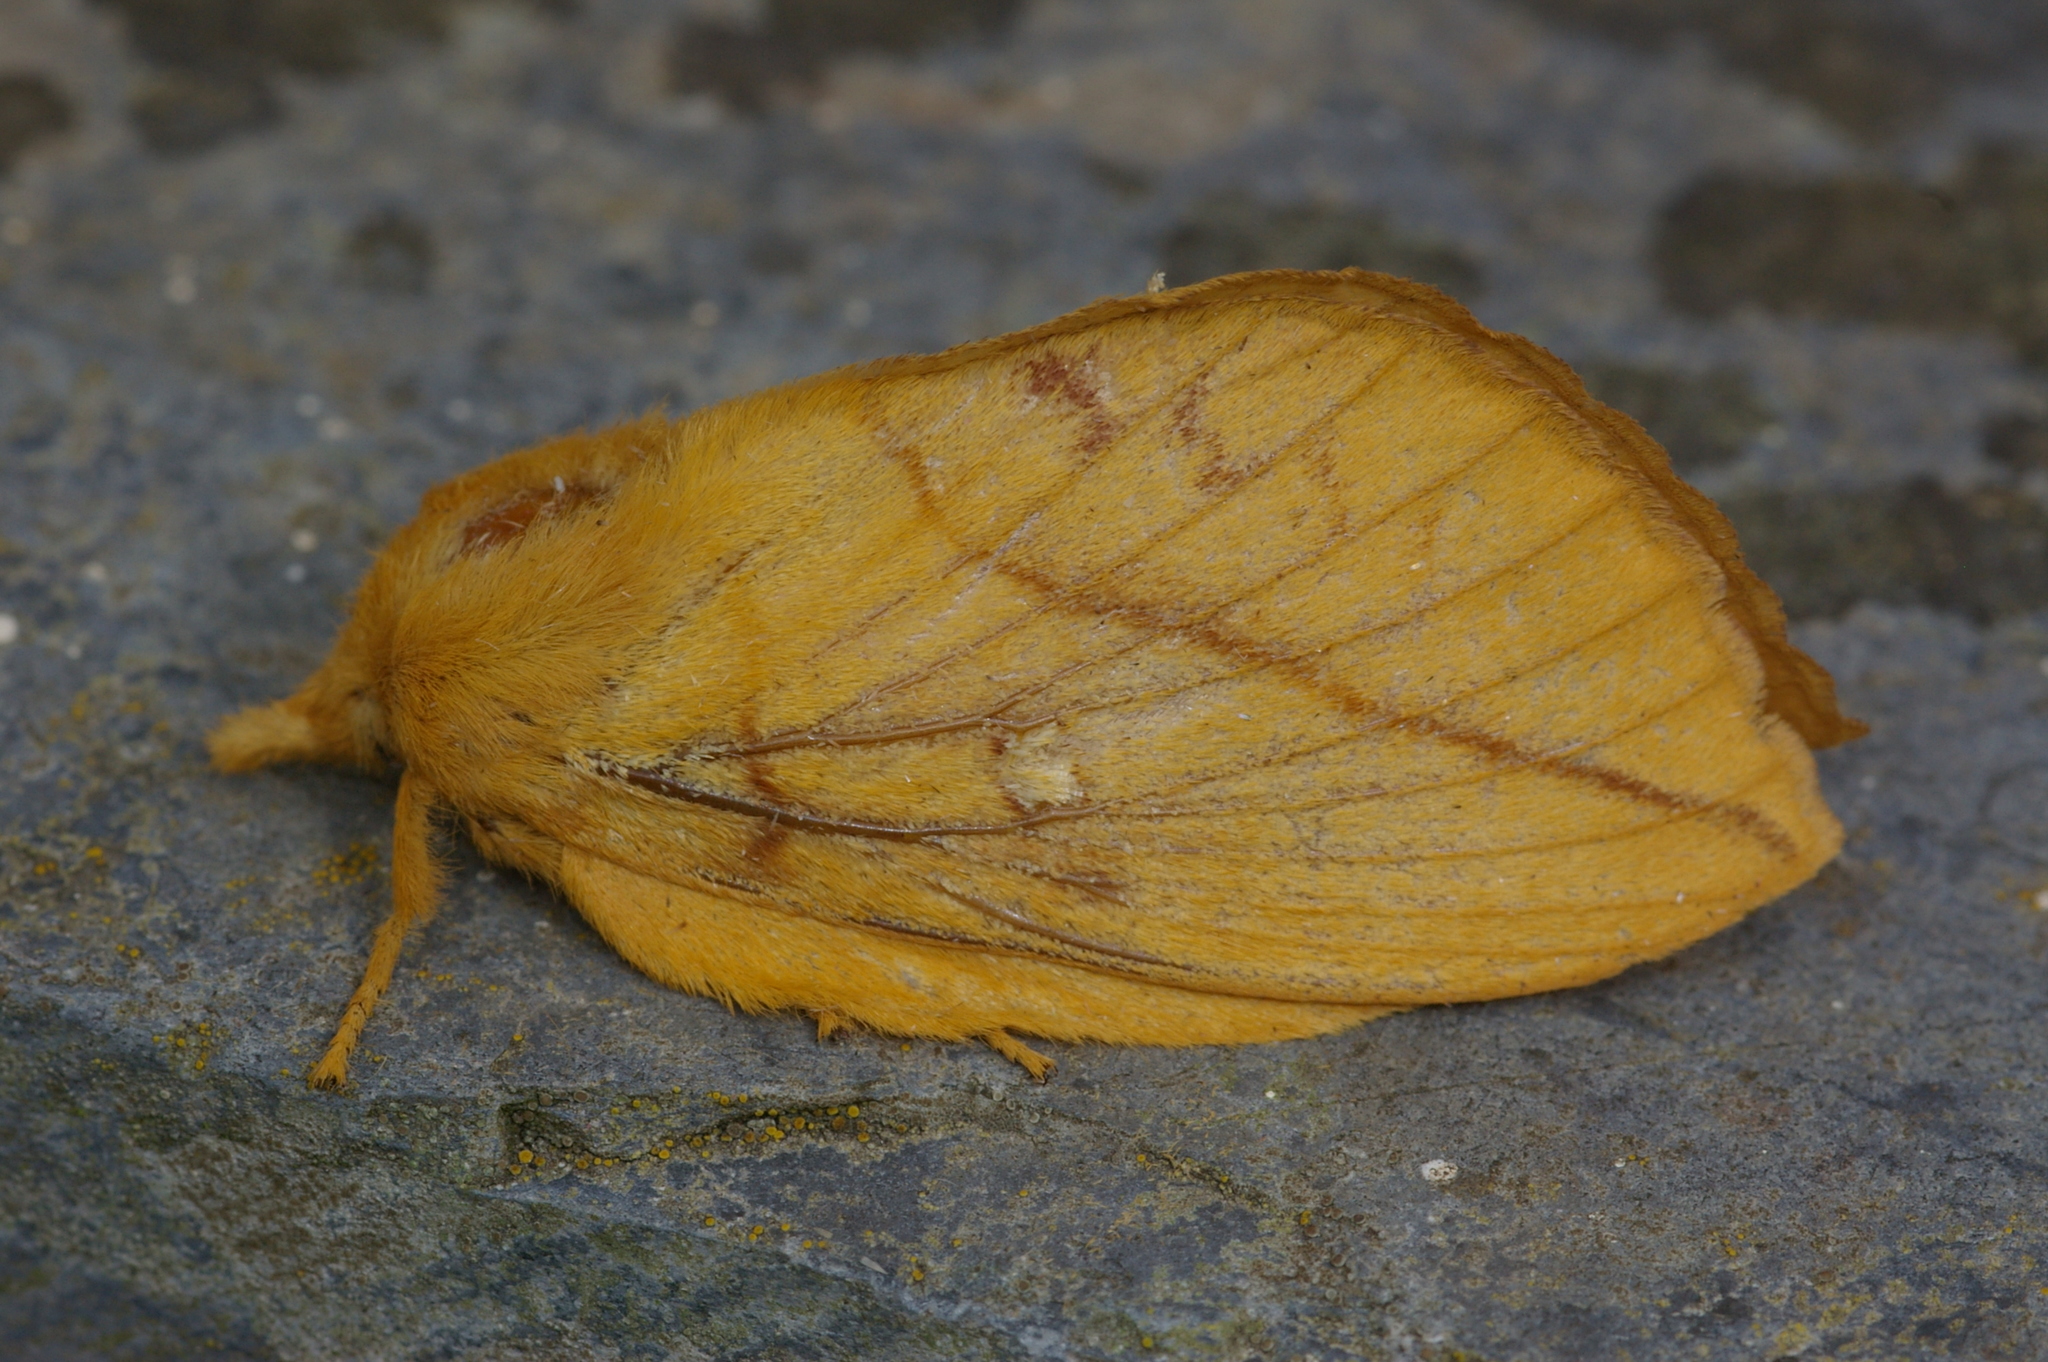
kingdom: Animalia
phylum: Arthropoda
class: Insecta
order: Lepidoptera
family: Lasiocampidae
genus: Euthrix
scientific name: Euthrix potatoria
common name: Drinker
